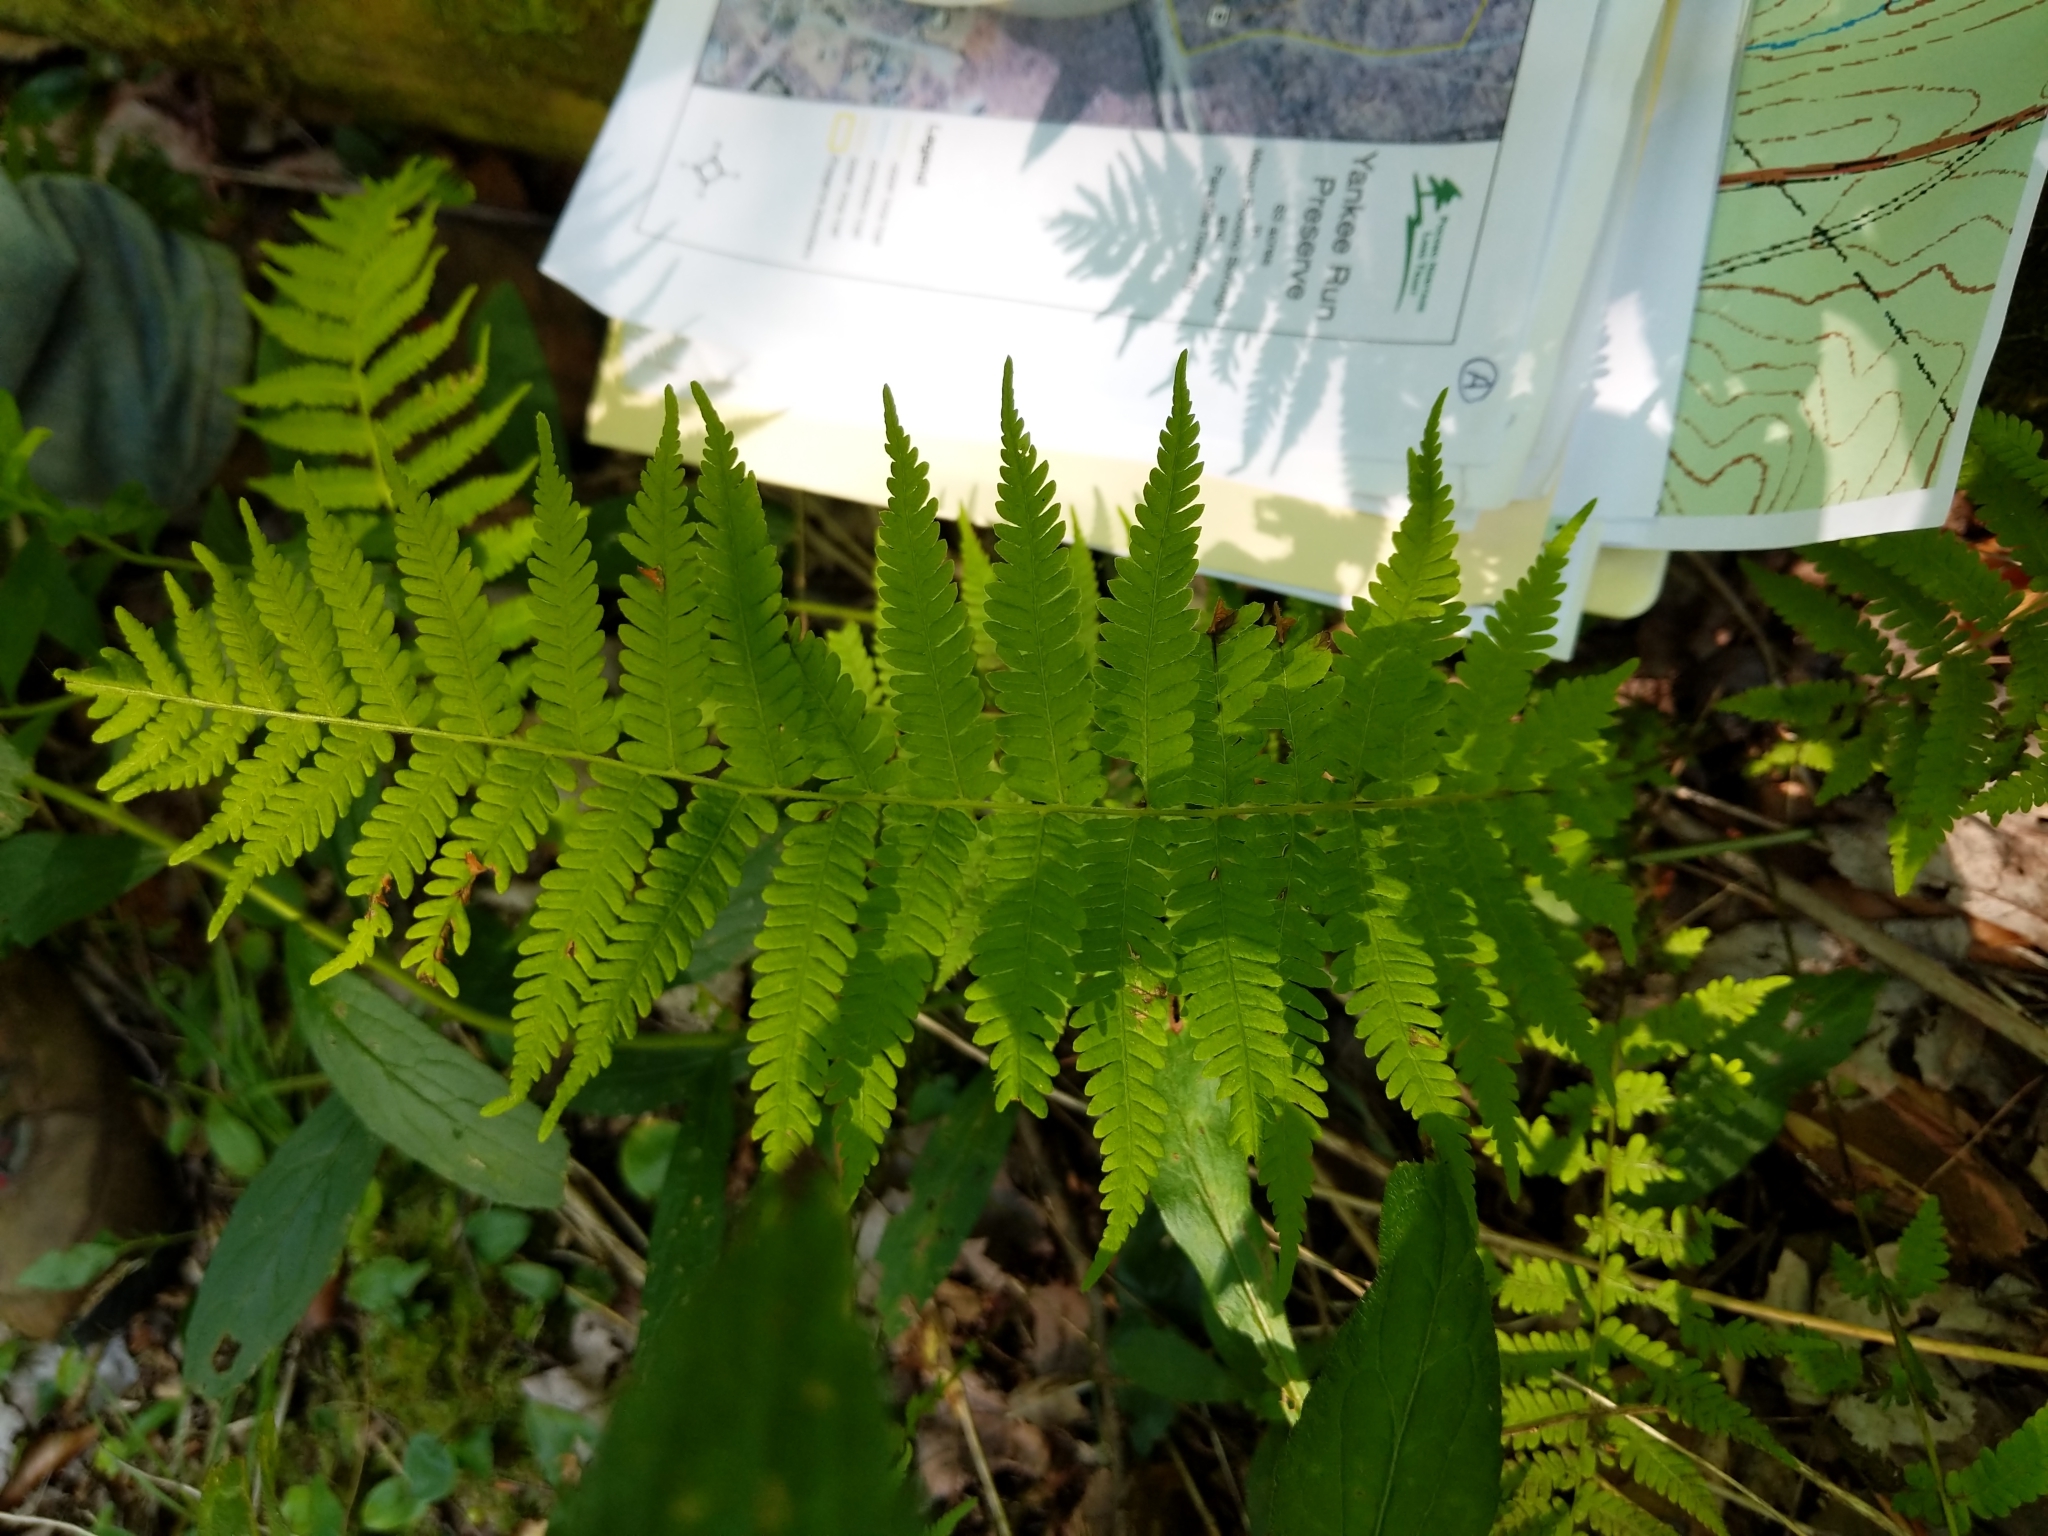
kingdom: Plantae
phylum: Tracheophyta
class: Polypodiopsida
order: Polypodiales
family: Thelypteridaceae
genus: Amauropelta
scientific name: Amauropelta noveboracensis
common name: New york fern
